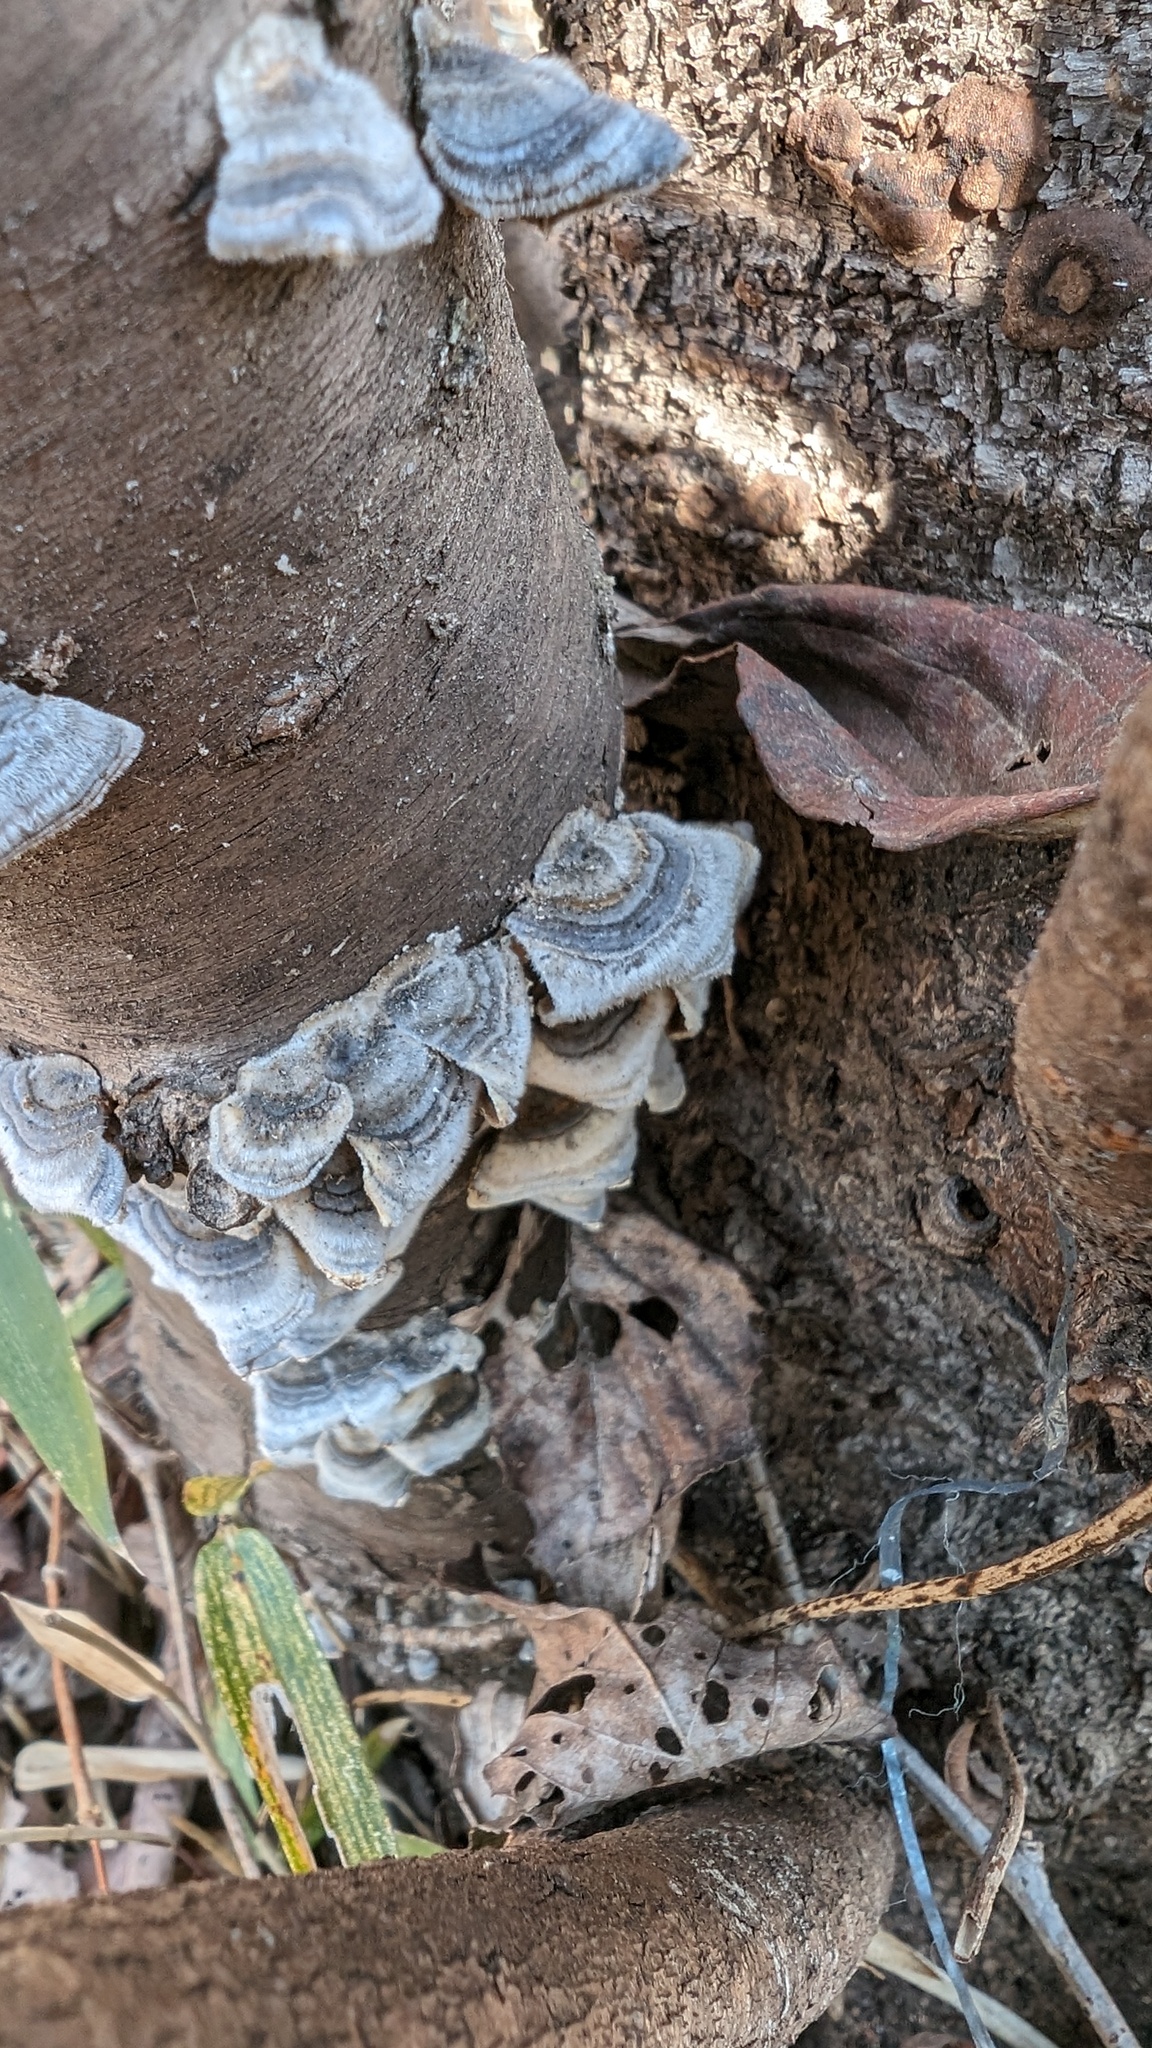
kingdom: Fungi
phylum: Basidiomycota
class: Agaricomycetes
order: Polyporales
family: Polyporaceae
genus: Trametes
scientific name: Trametes versicolor
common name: Turkeytail
